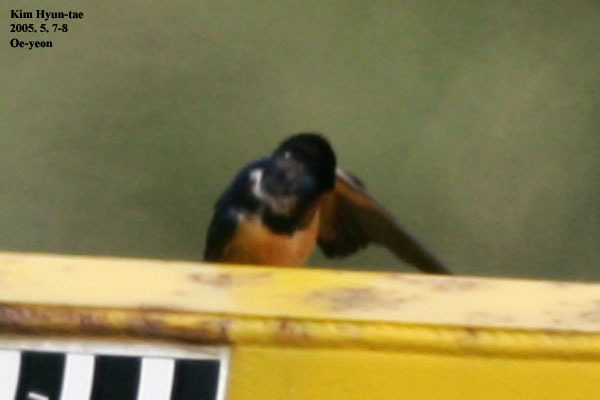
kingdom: Animalia
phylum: Chordata
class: Aves
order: Passeriformes
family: Hirundinidae
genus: Hirundo
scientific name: Hirundo rustica
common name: Barn swallow
